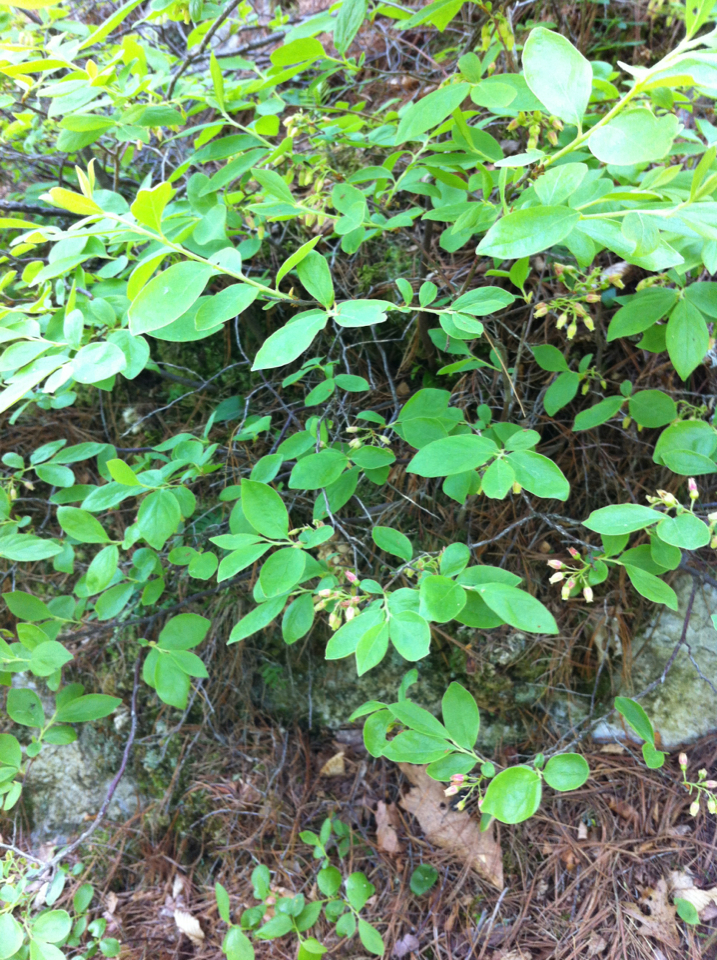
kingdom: Plantae
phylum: Tracheophyta
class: Magnoliopsida
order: Ericales
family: Ericaceae
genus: Vaccinium
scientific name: Vaccinium pallidum
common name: Blue ridge blueberry
